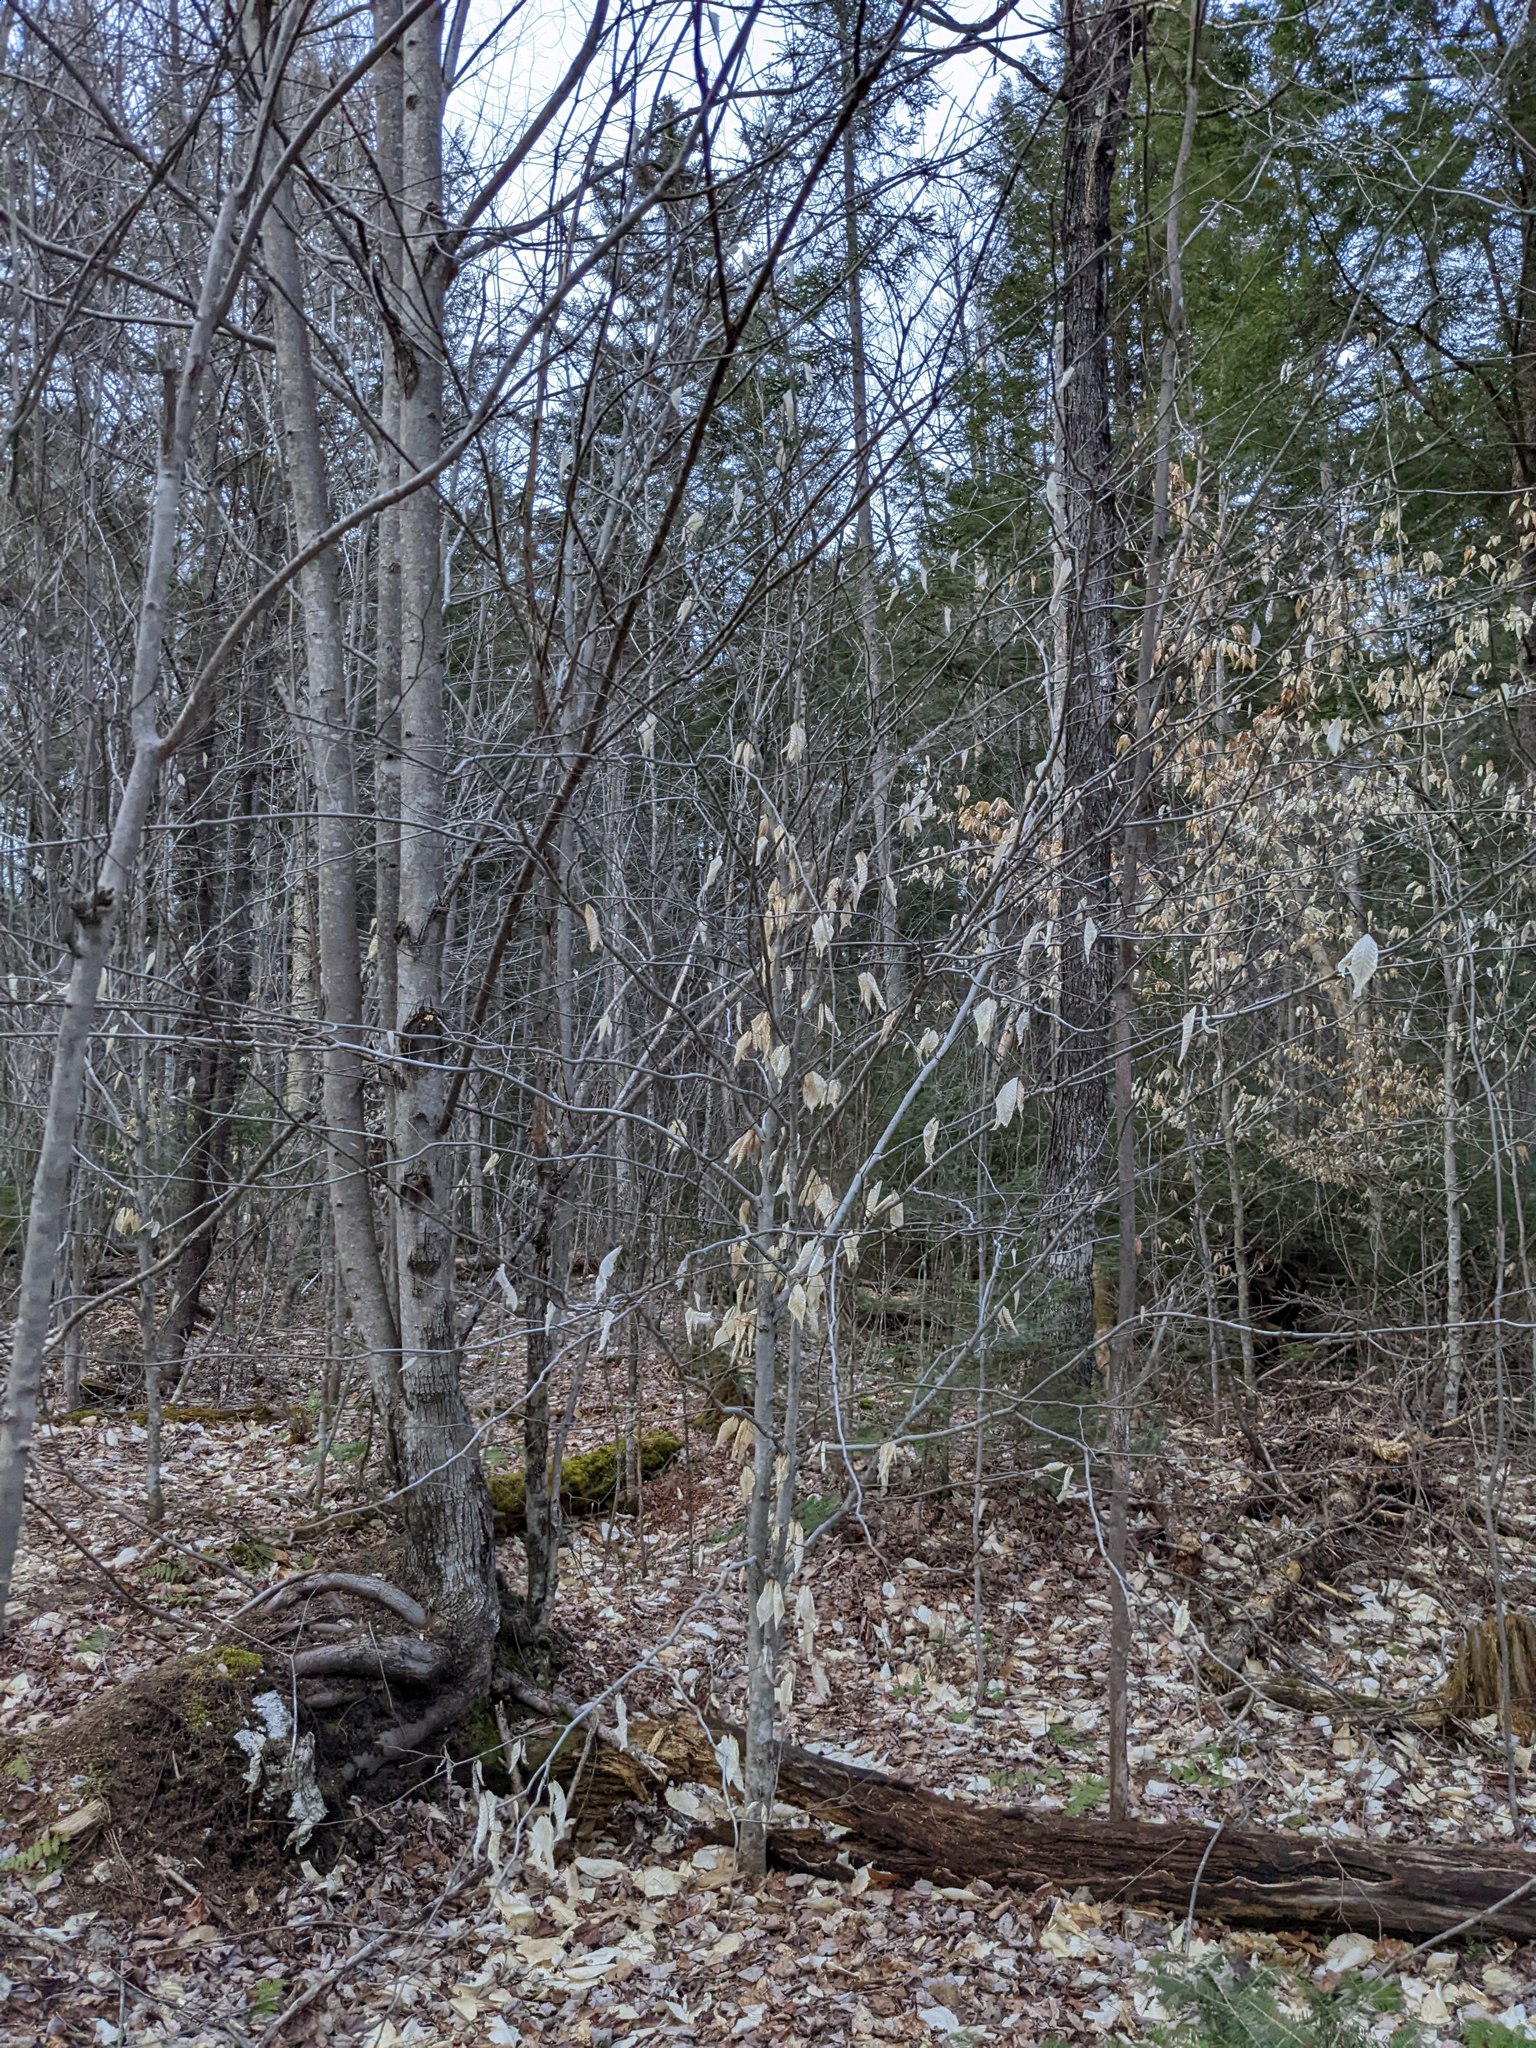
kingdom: Plantae
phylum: Tracheophyta
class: Magnoliopsida
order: Fagales
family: Fagaceae
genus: Fagus
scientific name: Fagus grandifolia
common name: American beech
